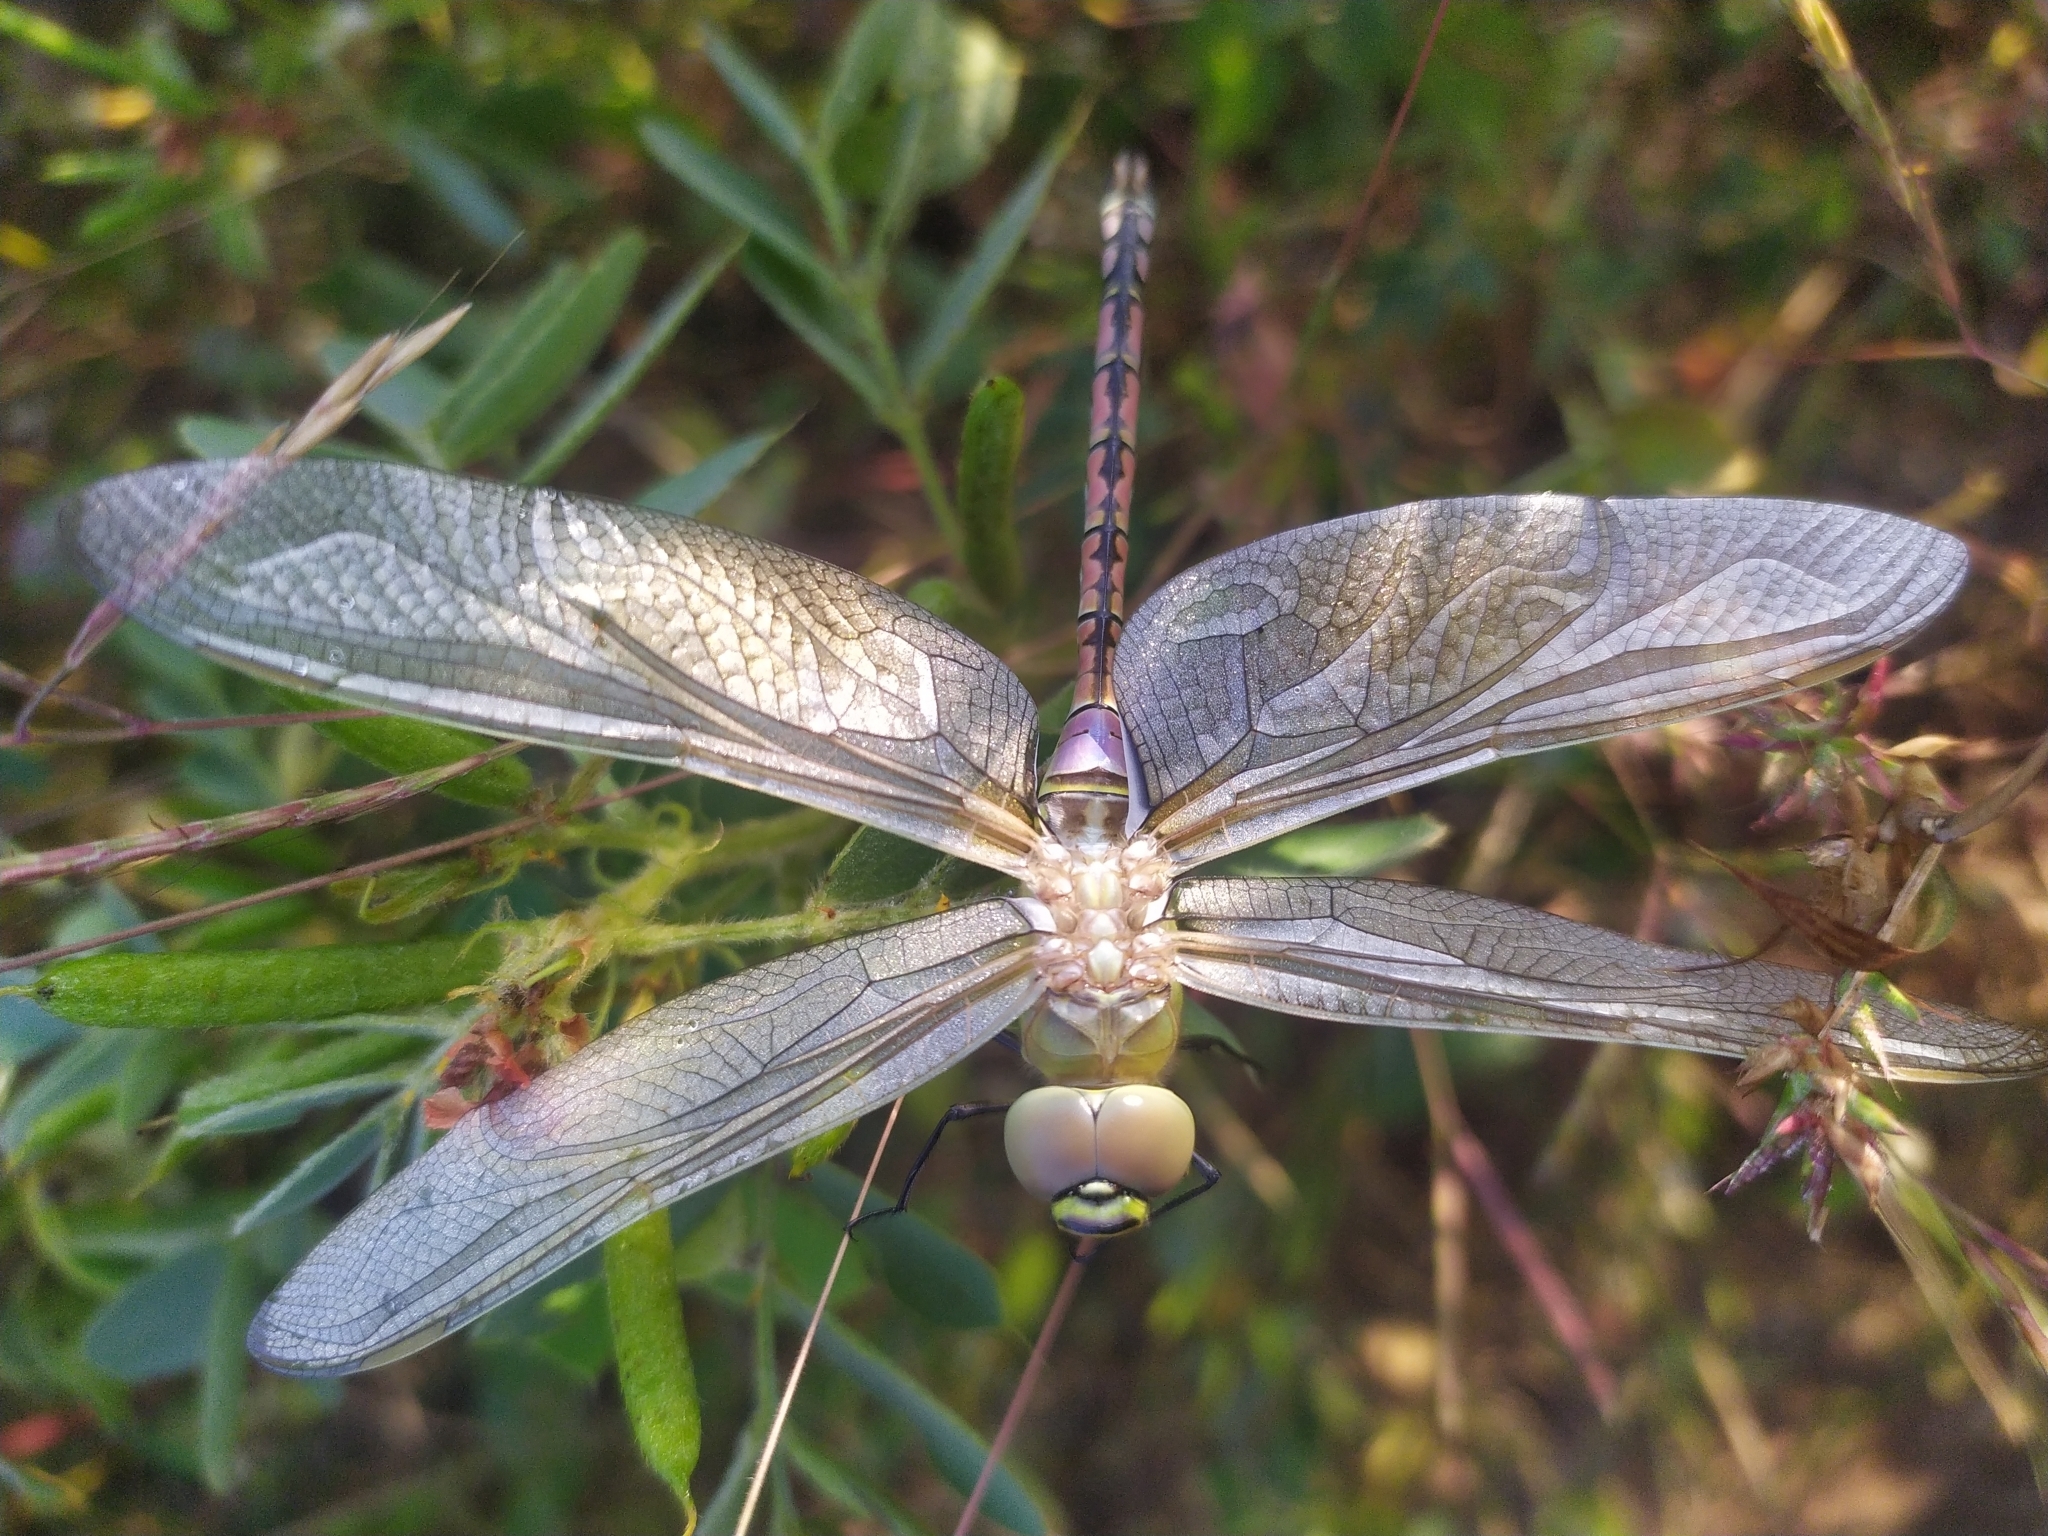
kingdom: Animalia
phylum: Arthropoda
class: Insecta
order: Odonata
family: Aeshnidae
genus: Anax
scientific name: Anax ephippiger
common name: Vagrant emperor
